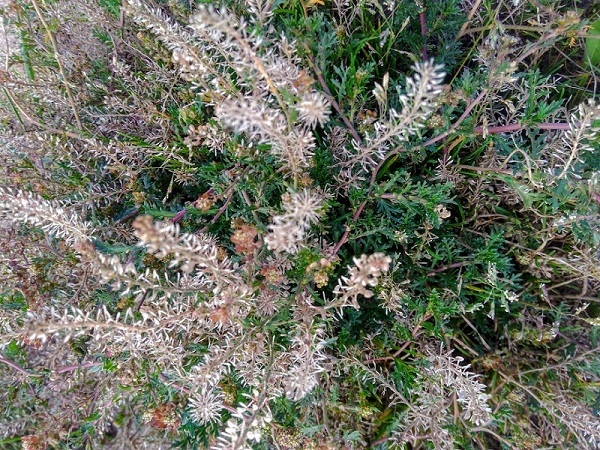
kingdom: Plantae
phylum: Tracheophyta
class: Magnoliopsida
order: Brassicales
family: Brassicaceae
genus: Lepidium
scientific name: Lepidium bipinnatifidum
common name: Wayside pepperwort
